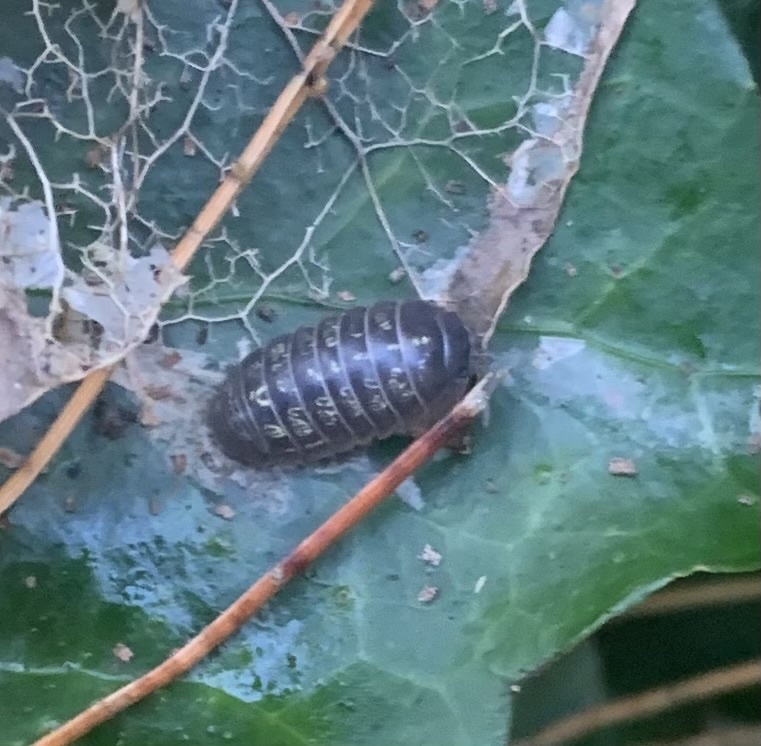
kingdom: Animalia
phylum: Arthropoda
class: Malacostraca
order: Isopoda
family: Armadillidiidae
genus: Armadillidium
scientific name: Armadillidium vulgare
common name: Common pill woodlouse
